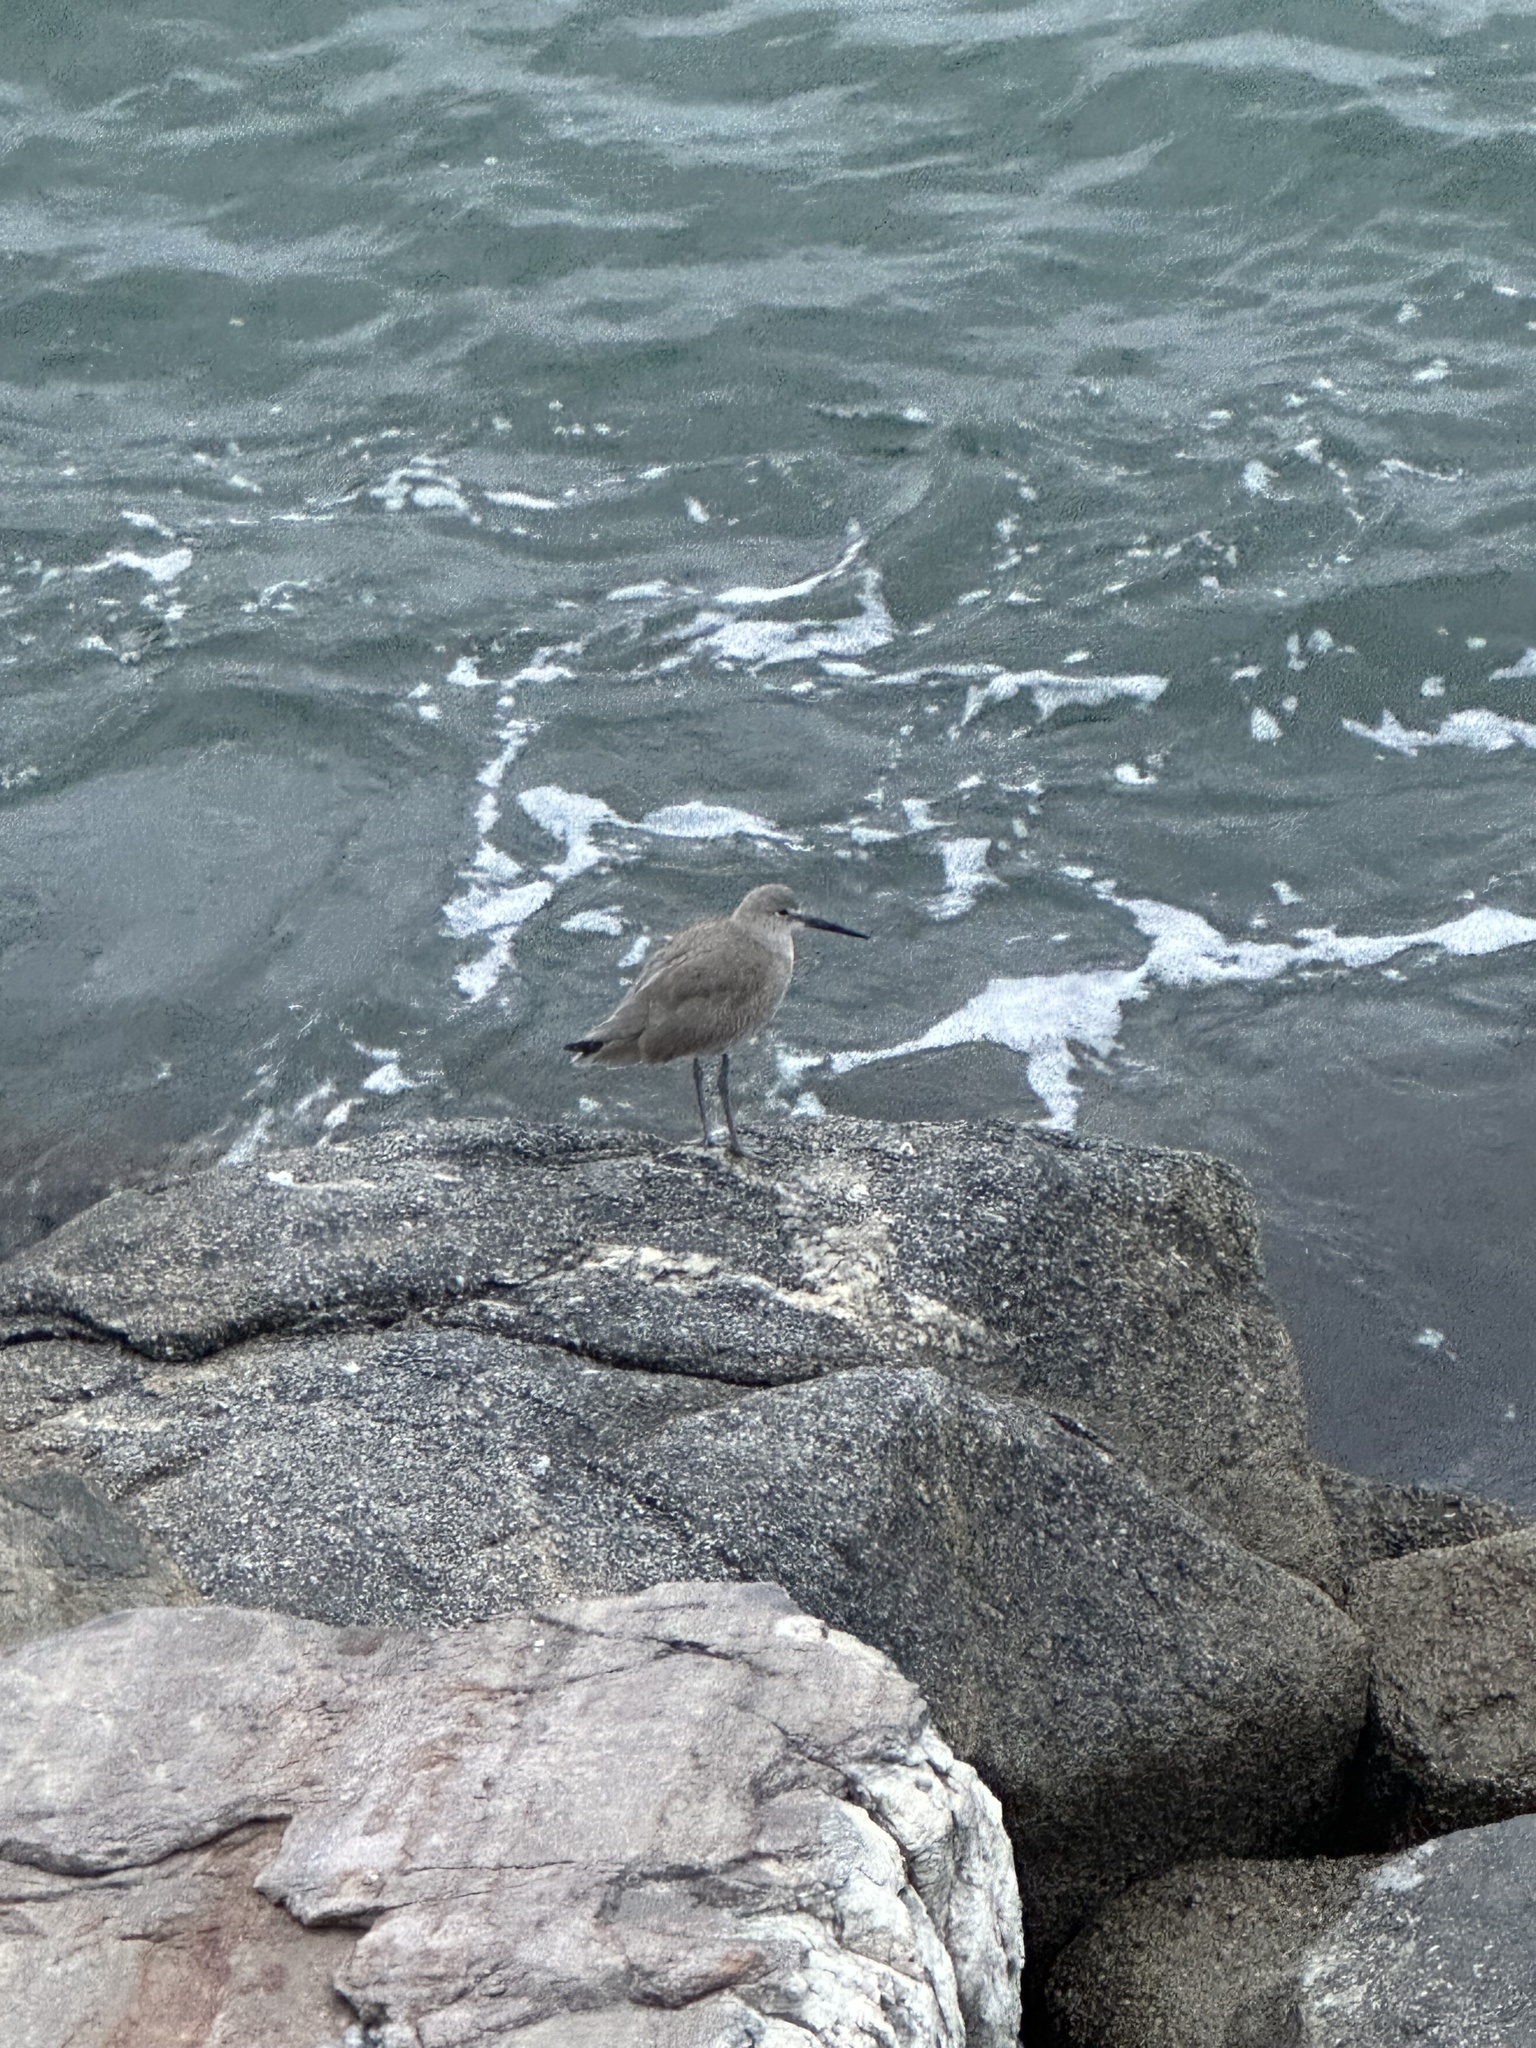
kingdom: Animalia
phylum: Chordata
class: Aves
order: Charadriiformes
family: Scolopacidae
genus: Tringa
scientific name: Tringa semipalmata
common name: Willet
